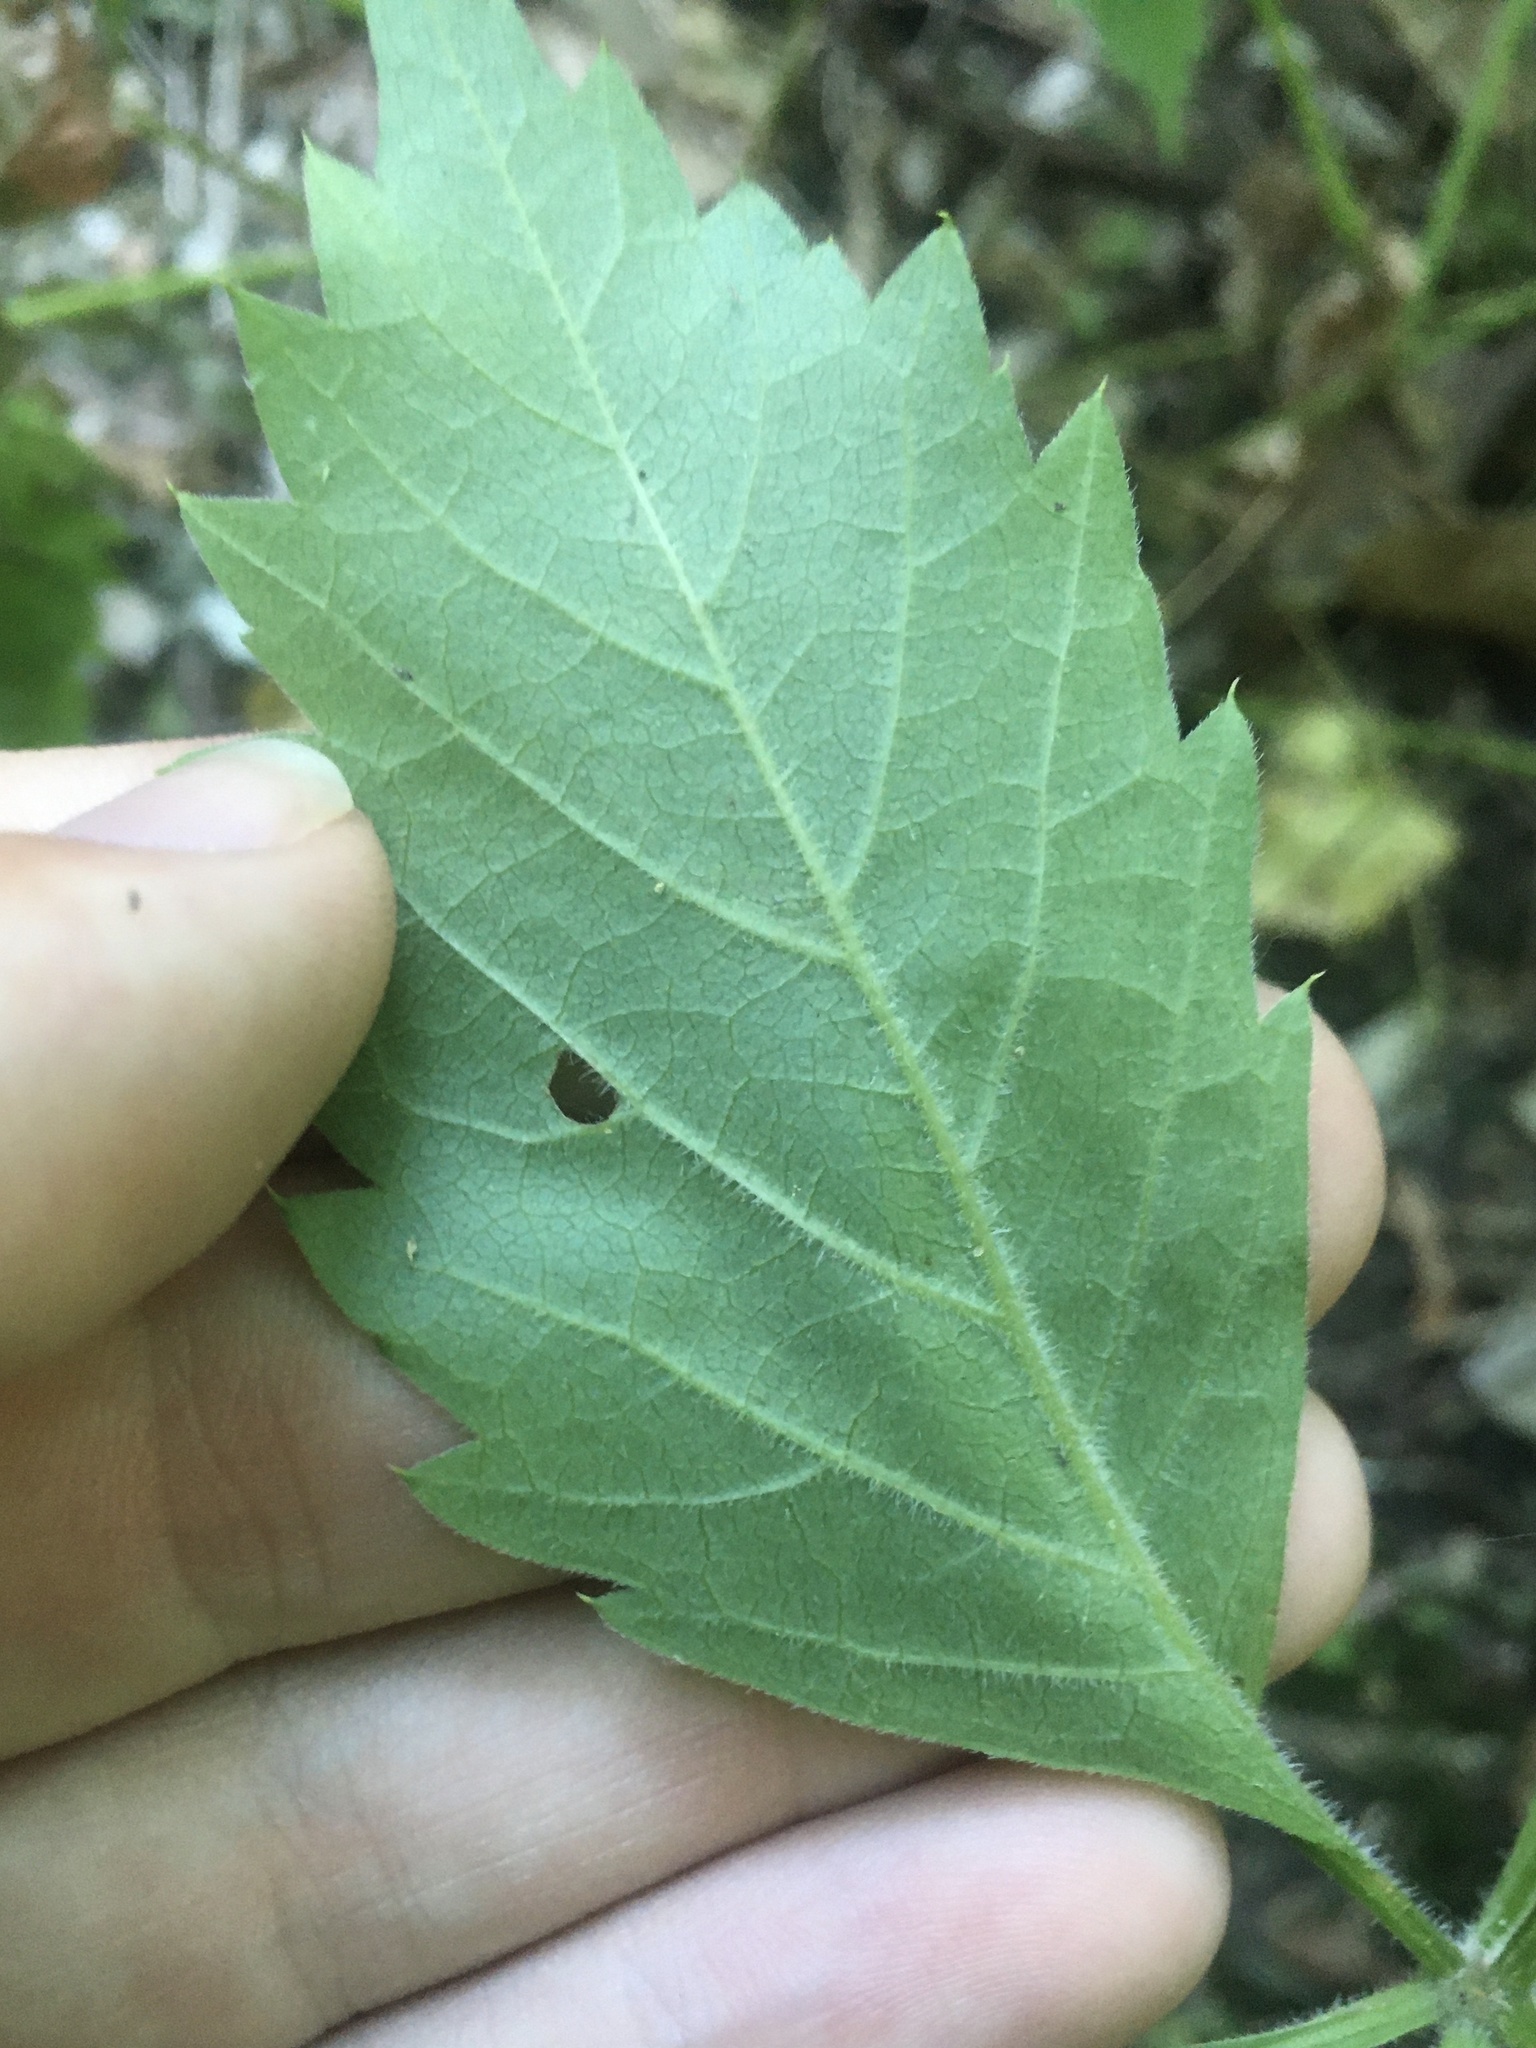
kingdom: Animalia
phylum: Arthropoda
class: Insecta
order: Lepidoptera
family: Gracillariidae
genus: Phyllocnistis
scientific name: Phyllocnistis vitifoliella
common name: Grape leaf-miner moth
